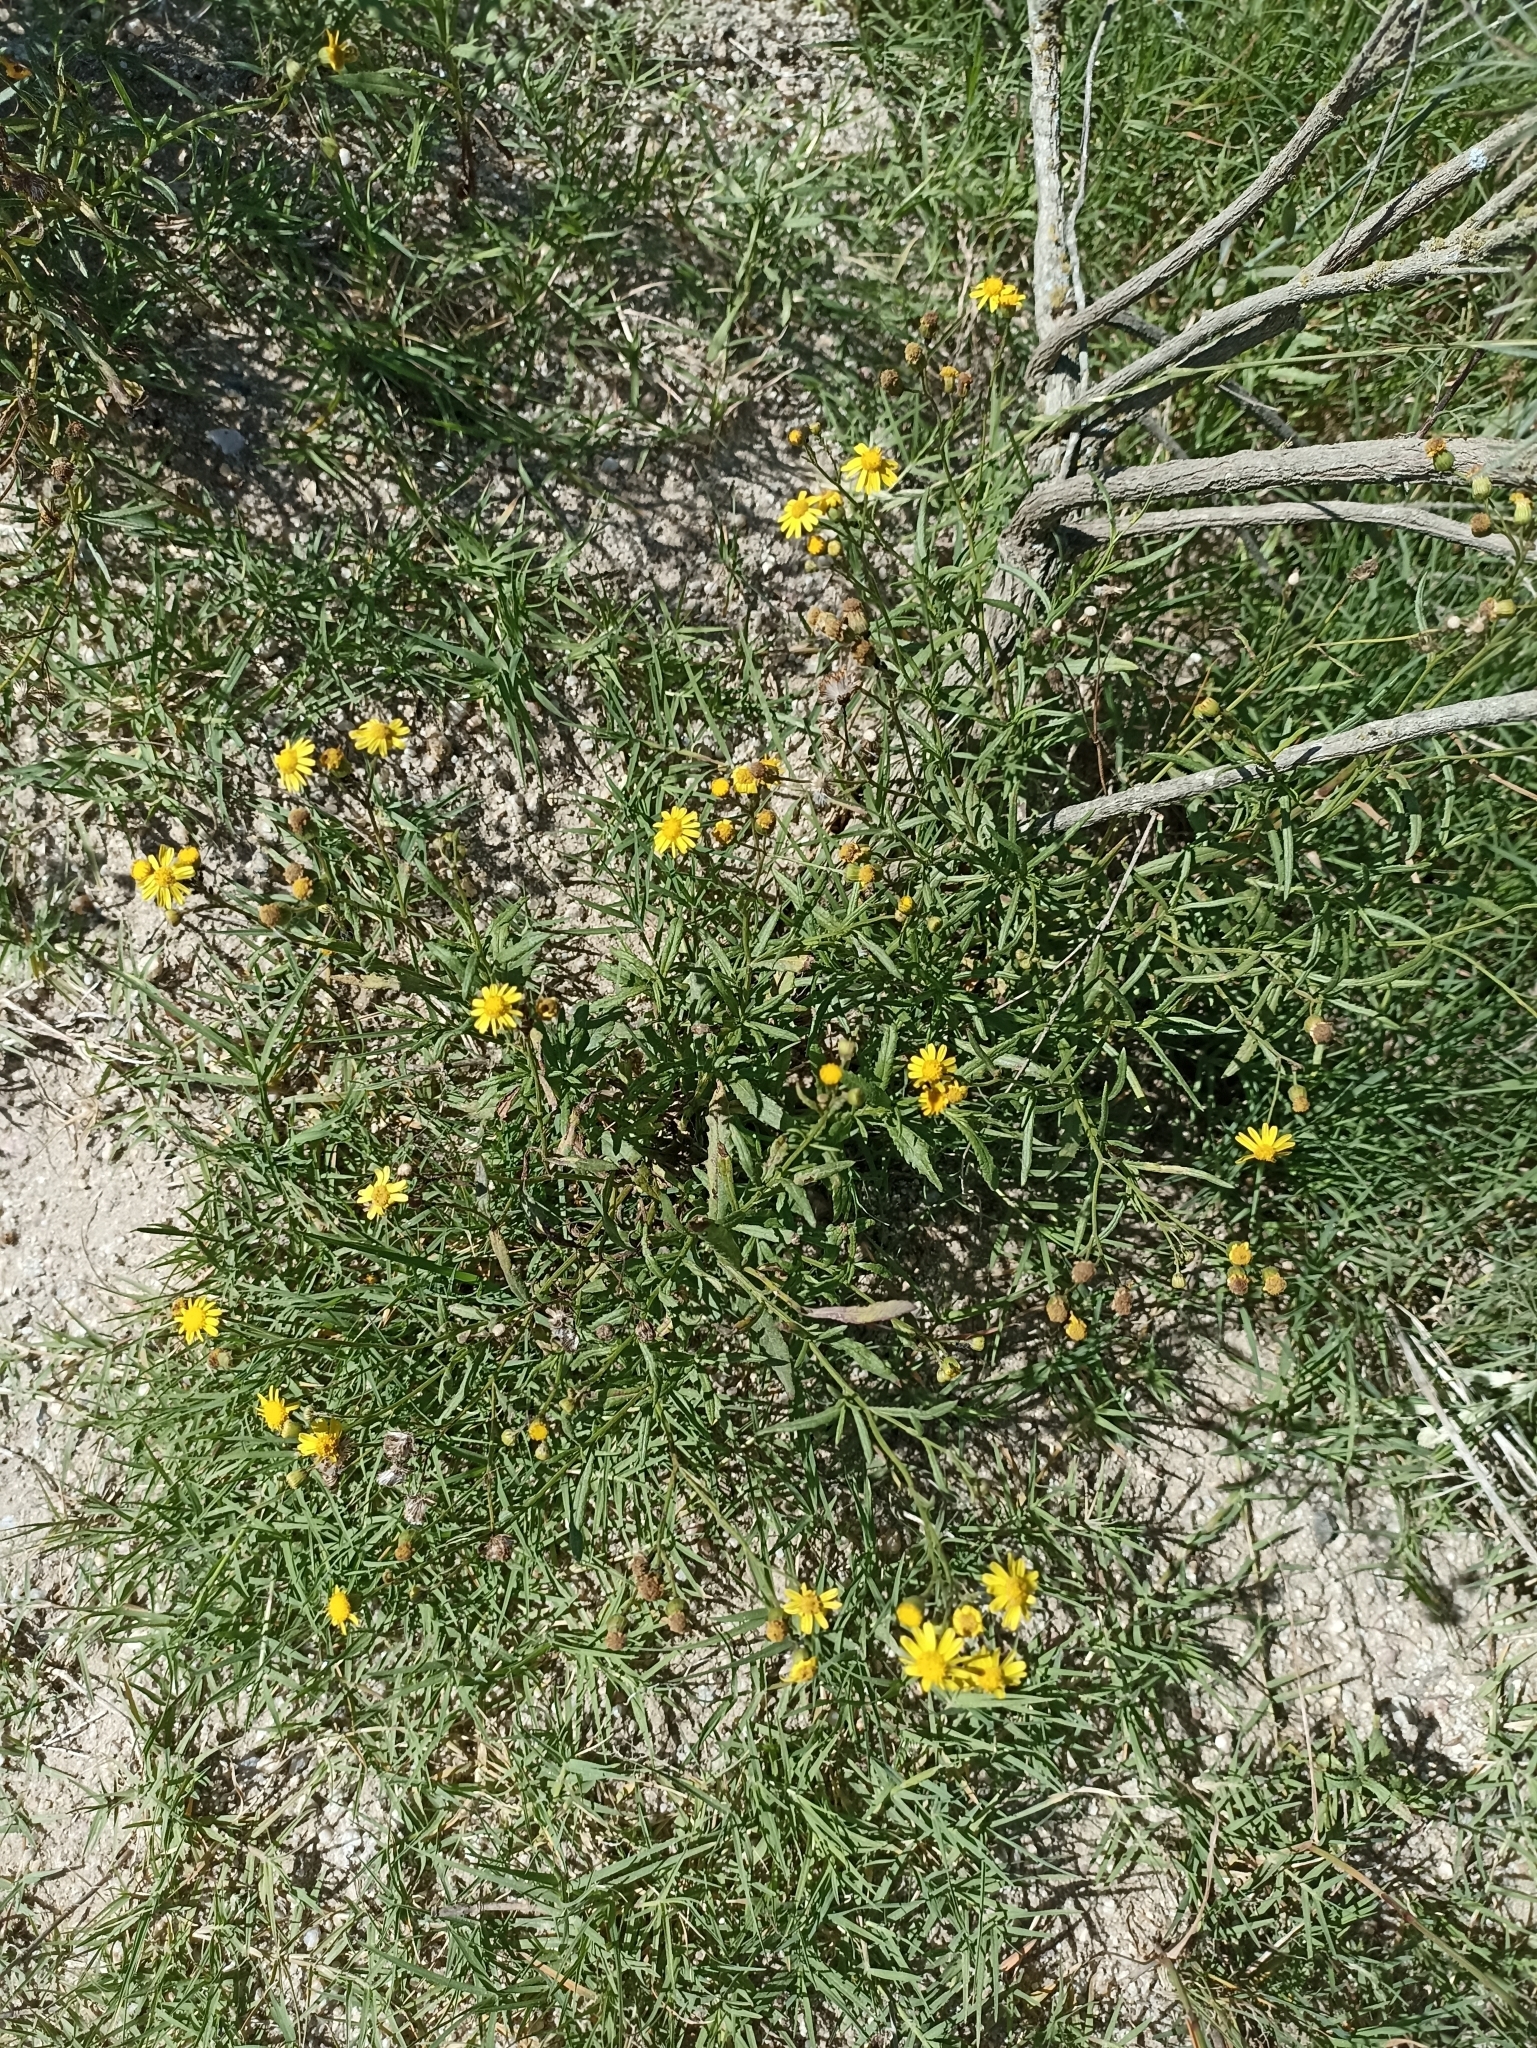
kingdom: Plantae
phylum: Tracheophyta
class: Magnoliopsida
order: Asterales
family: Asteraceae
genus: Senecio
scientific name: Senecio madagascariensis
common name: Madagascar ragwort
